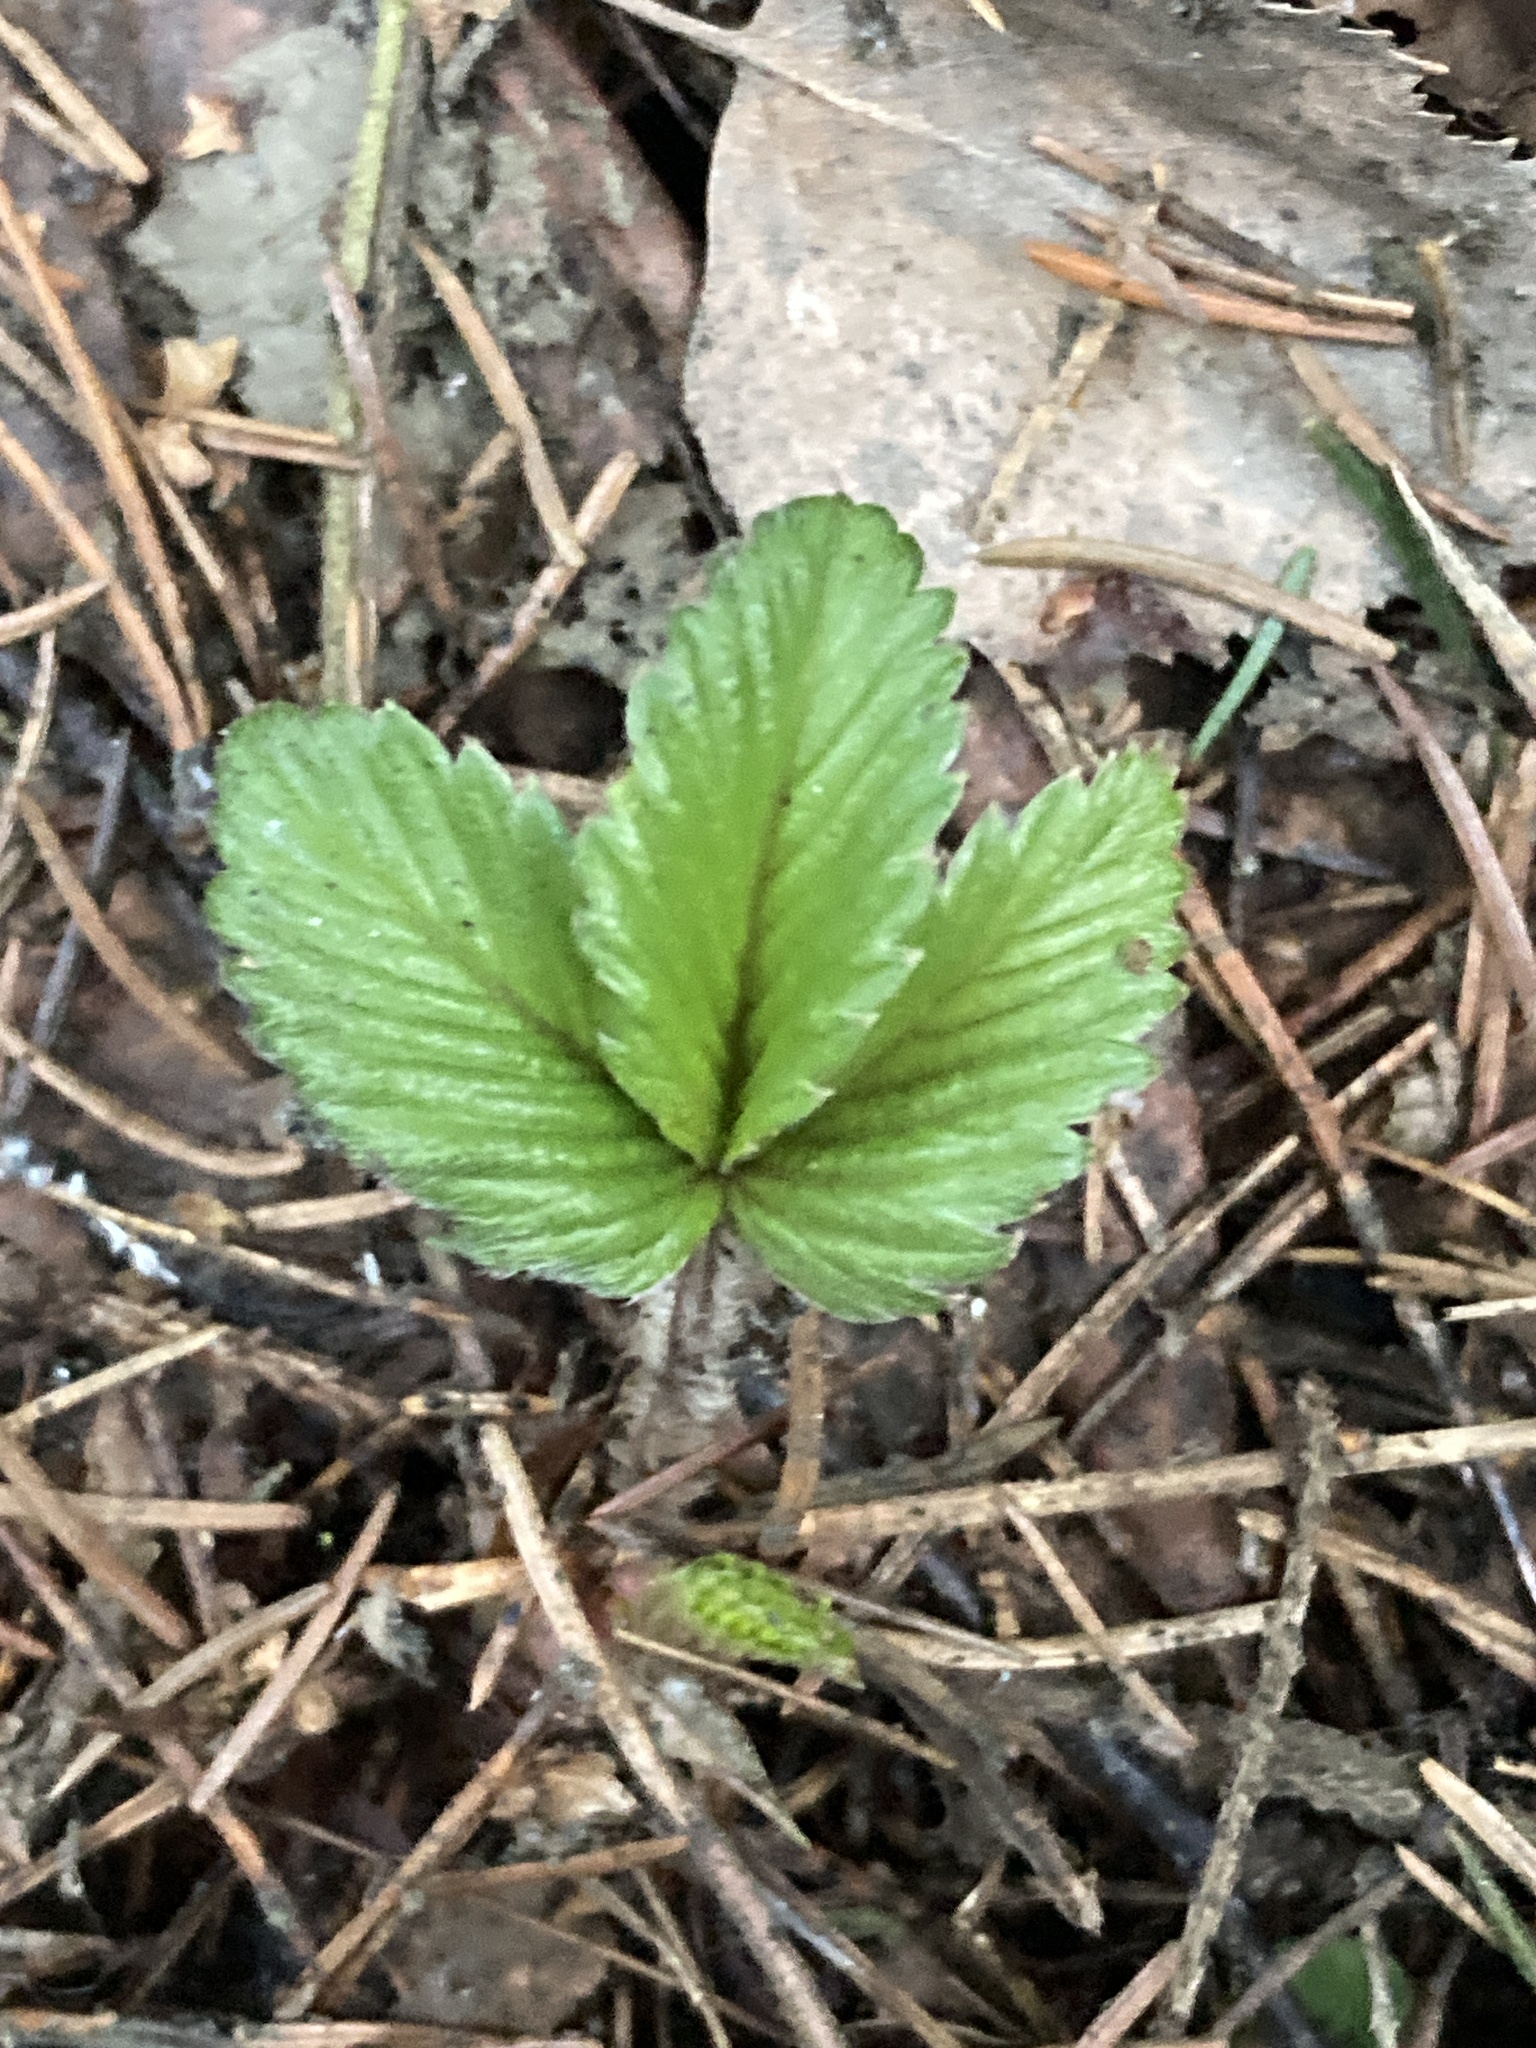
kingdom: Plantae
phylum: Tracheophyta
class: Magnoliopsida
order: Rosales
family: Rosaceae
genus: Fragaria
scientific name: Fragaria vesca
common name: Wild strawberry
